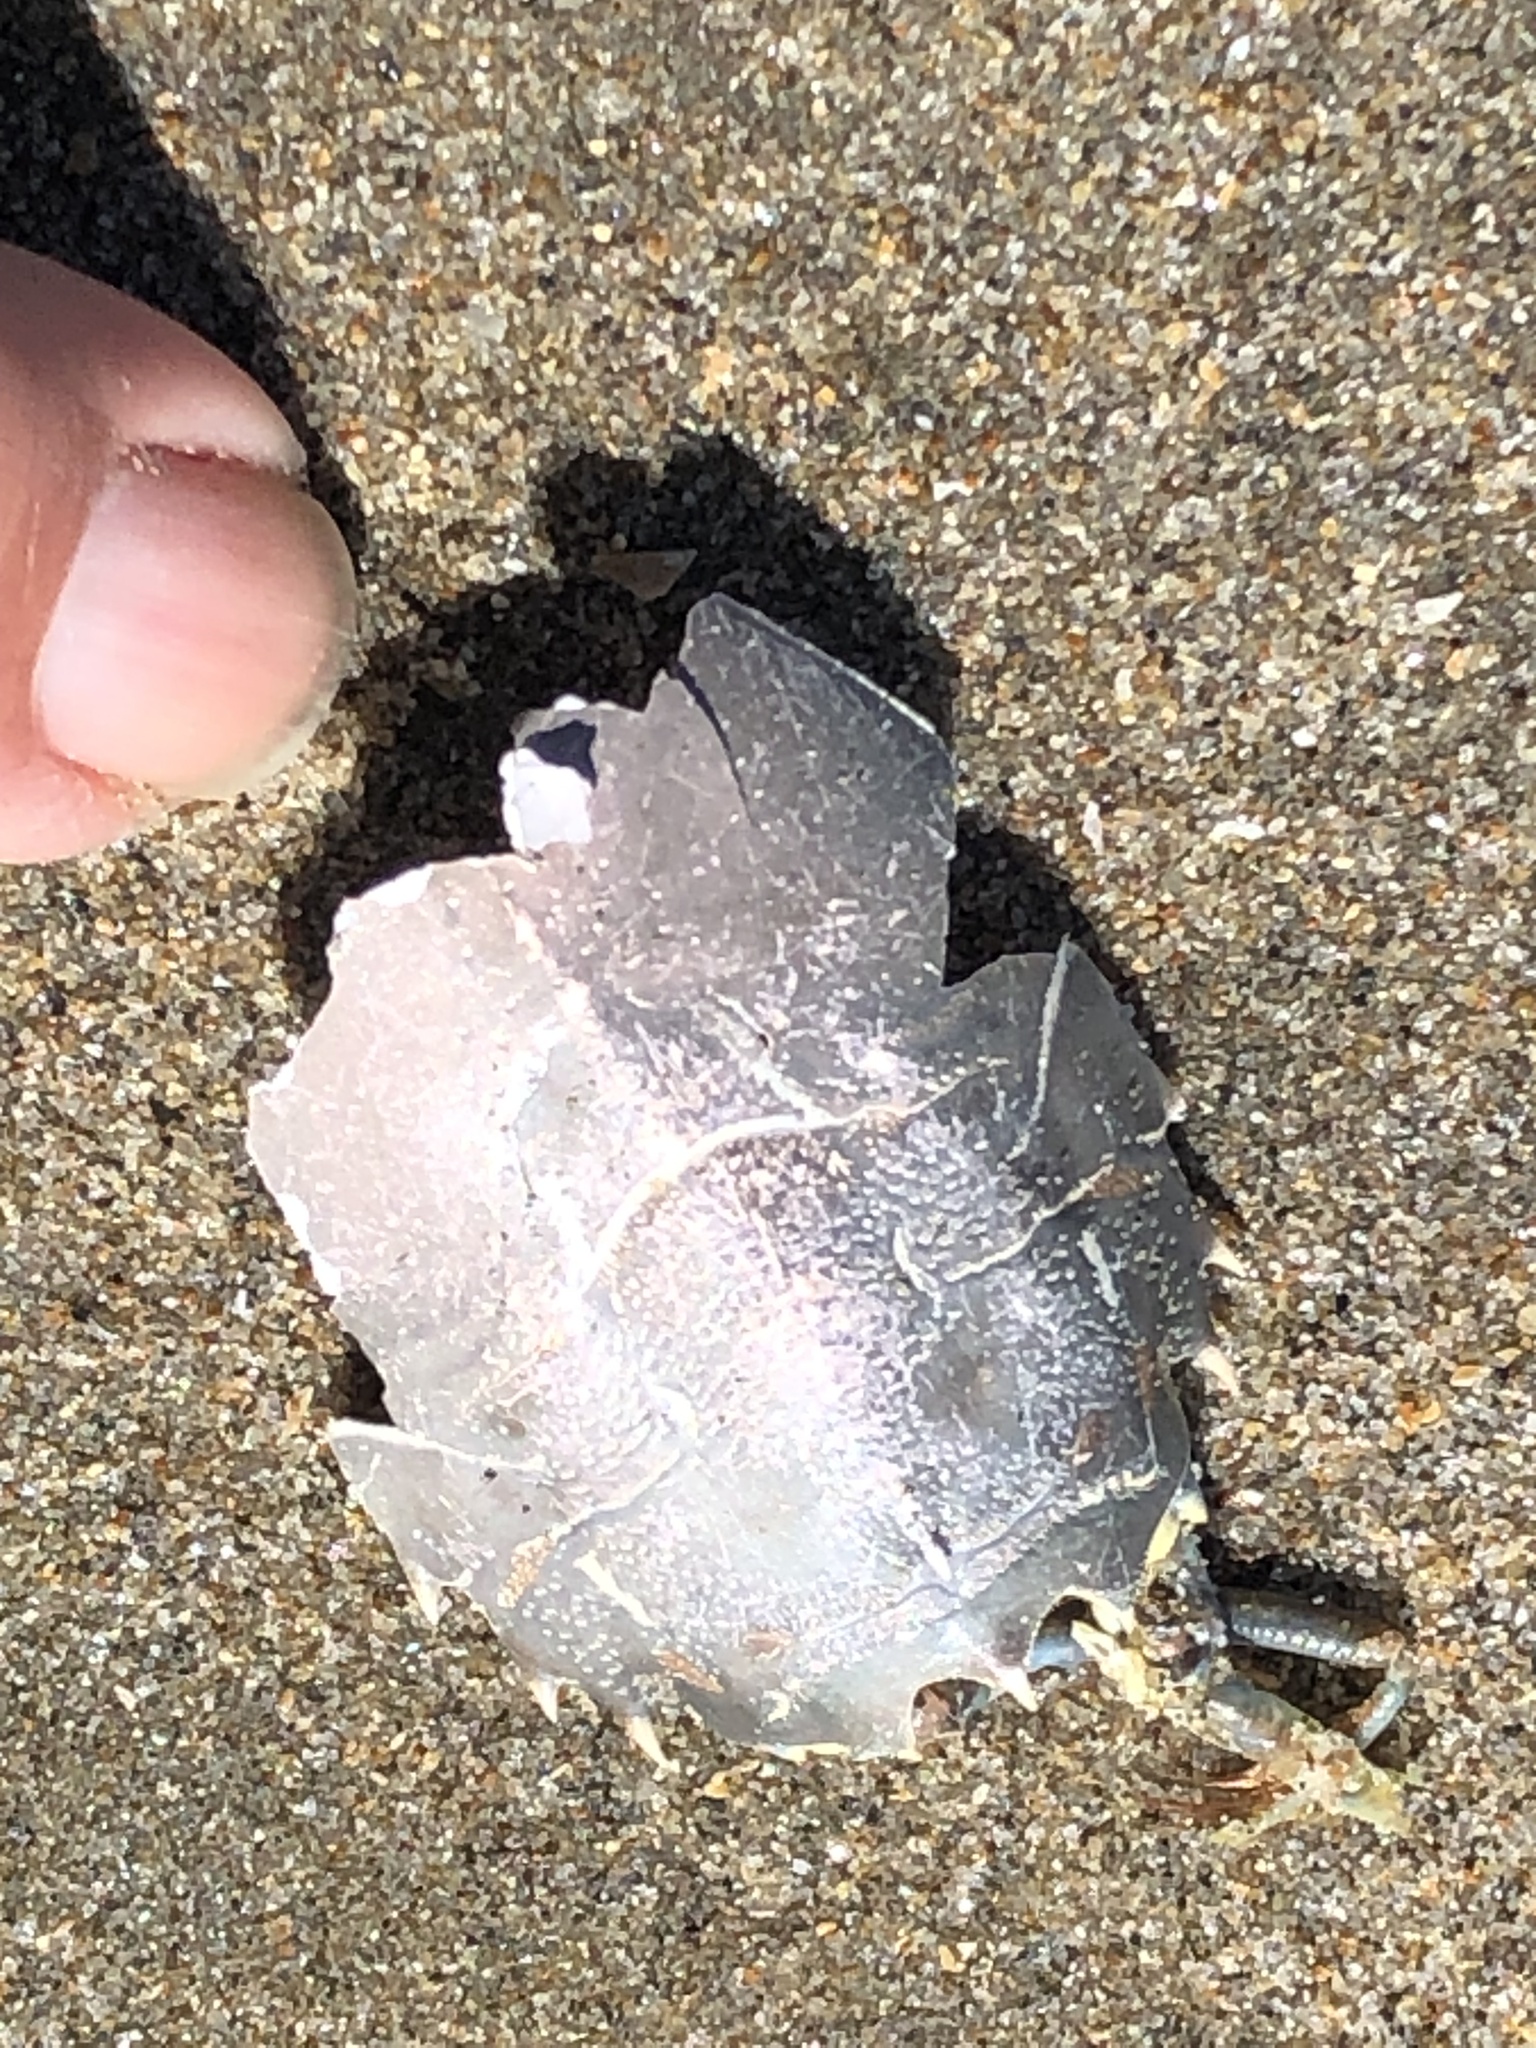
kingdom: Animalia
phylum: Arthropoda
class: Malacostraca
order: Decapoda
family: Blepharipodidae
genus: Blepharipoda
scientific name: Blepharipoda occidentalis
